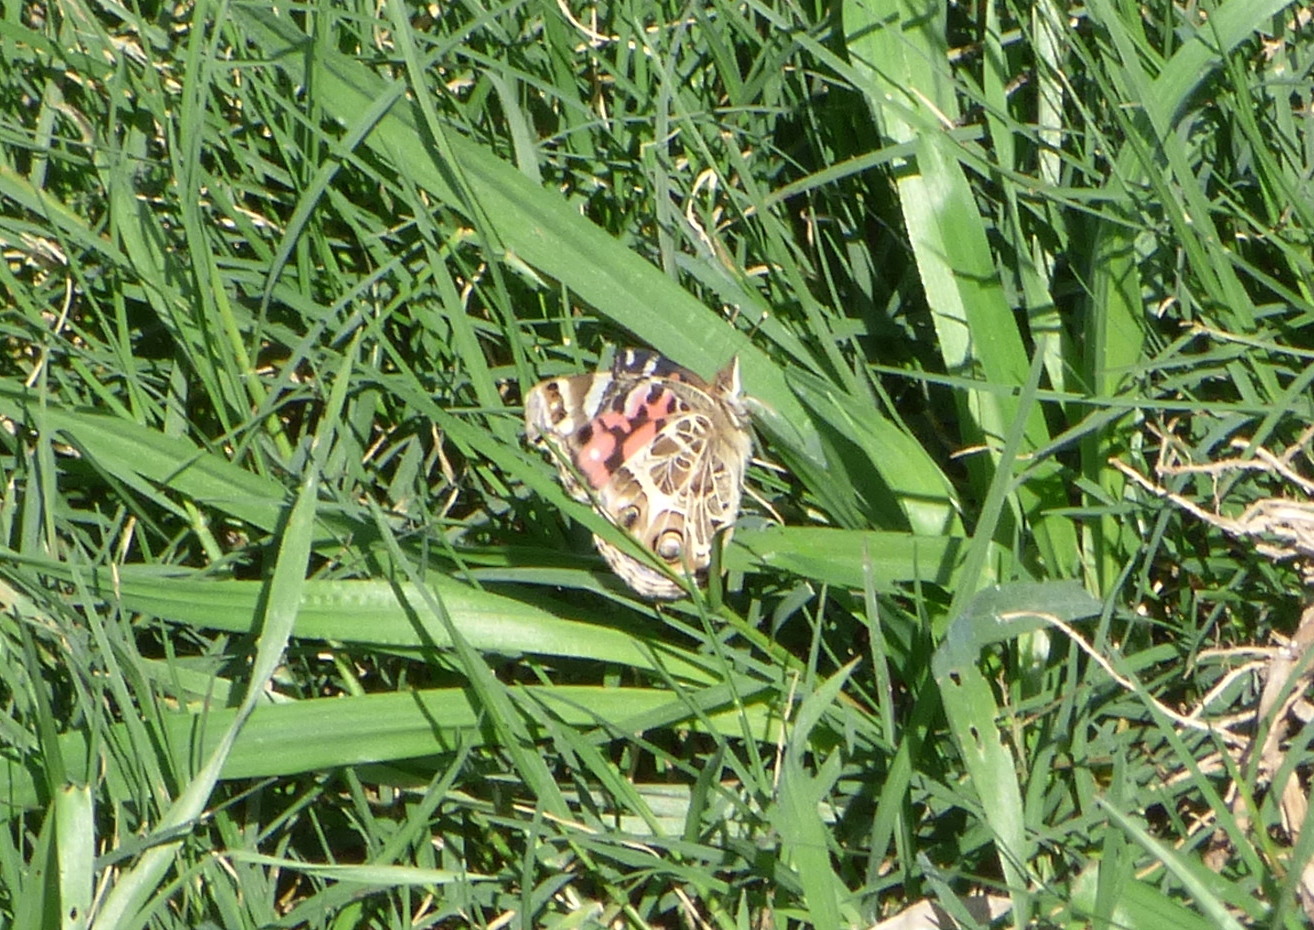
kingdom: Animalia
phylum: Arthropoda
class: Insecta
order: Lepidoptera
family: Nymphalidae
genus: Vanessa
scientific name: Vanessa braziliensis
